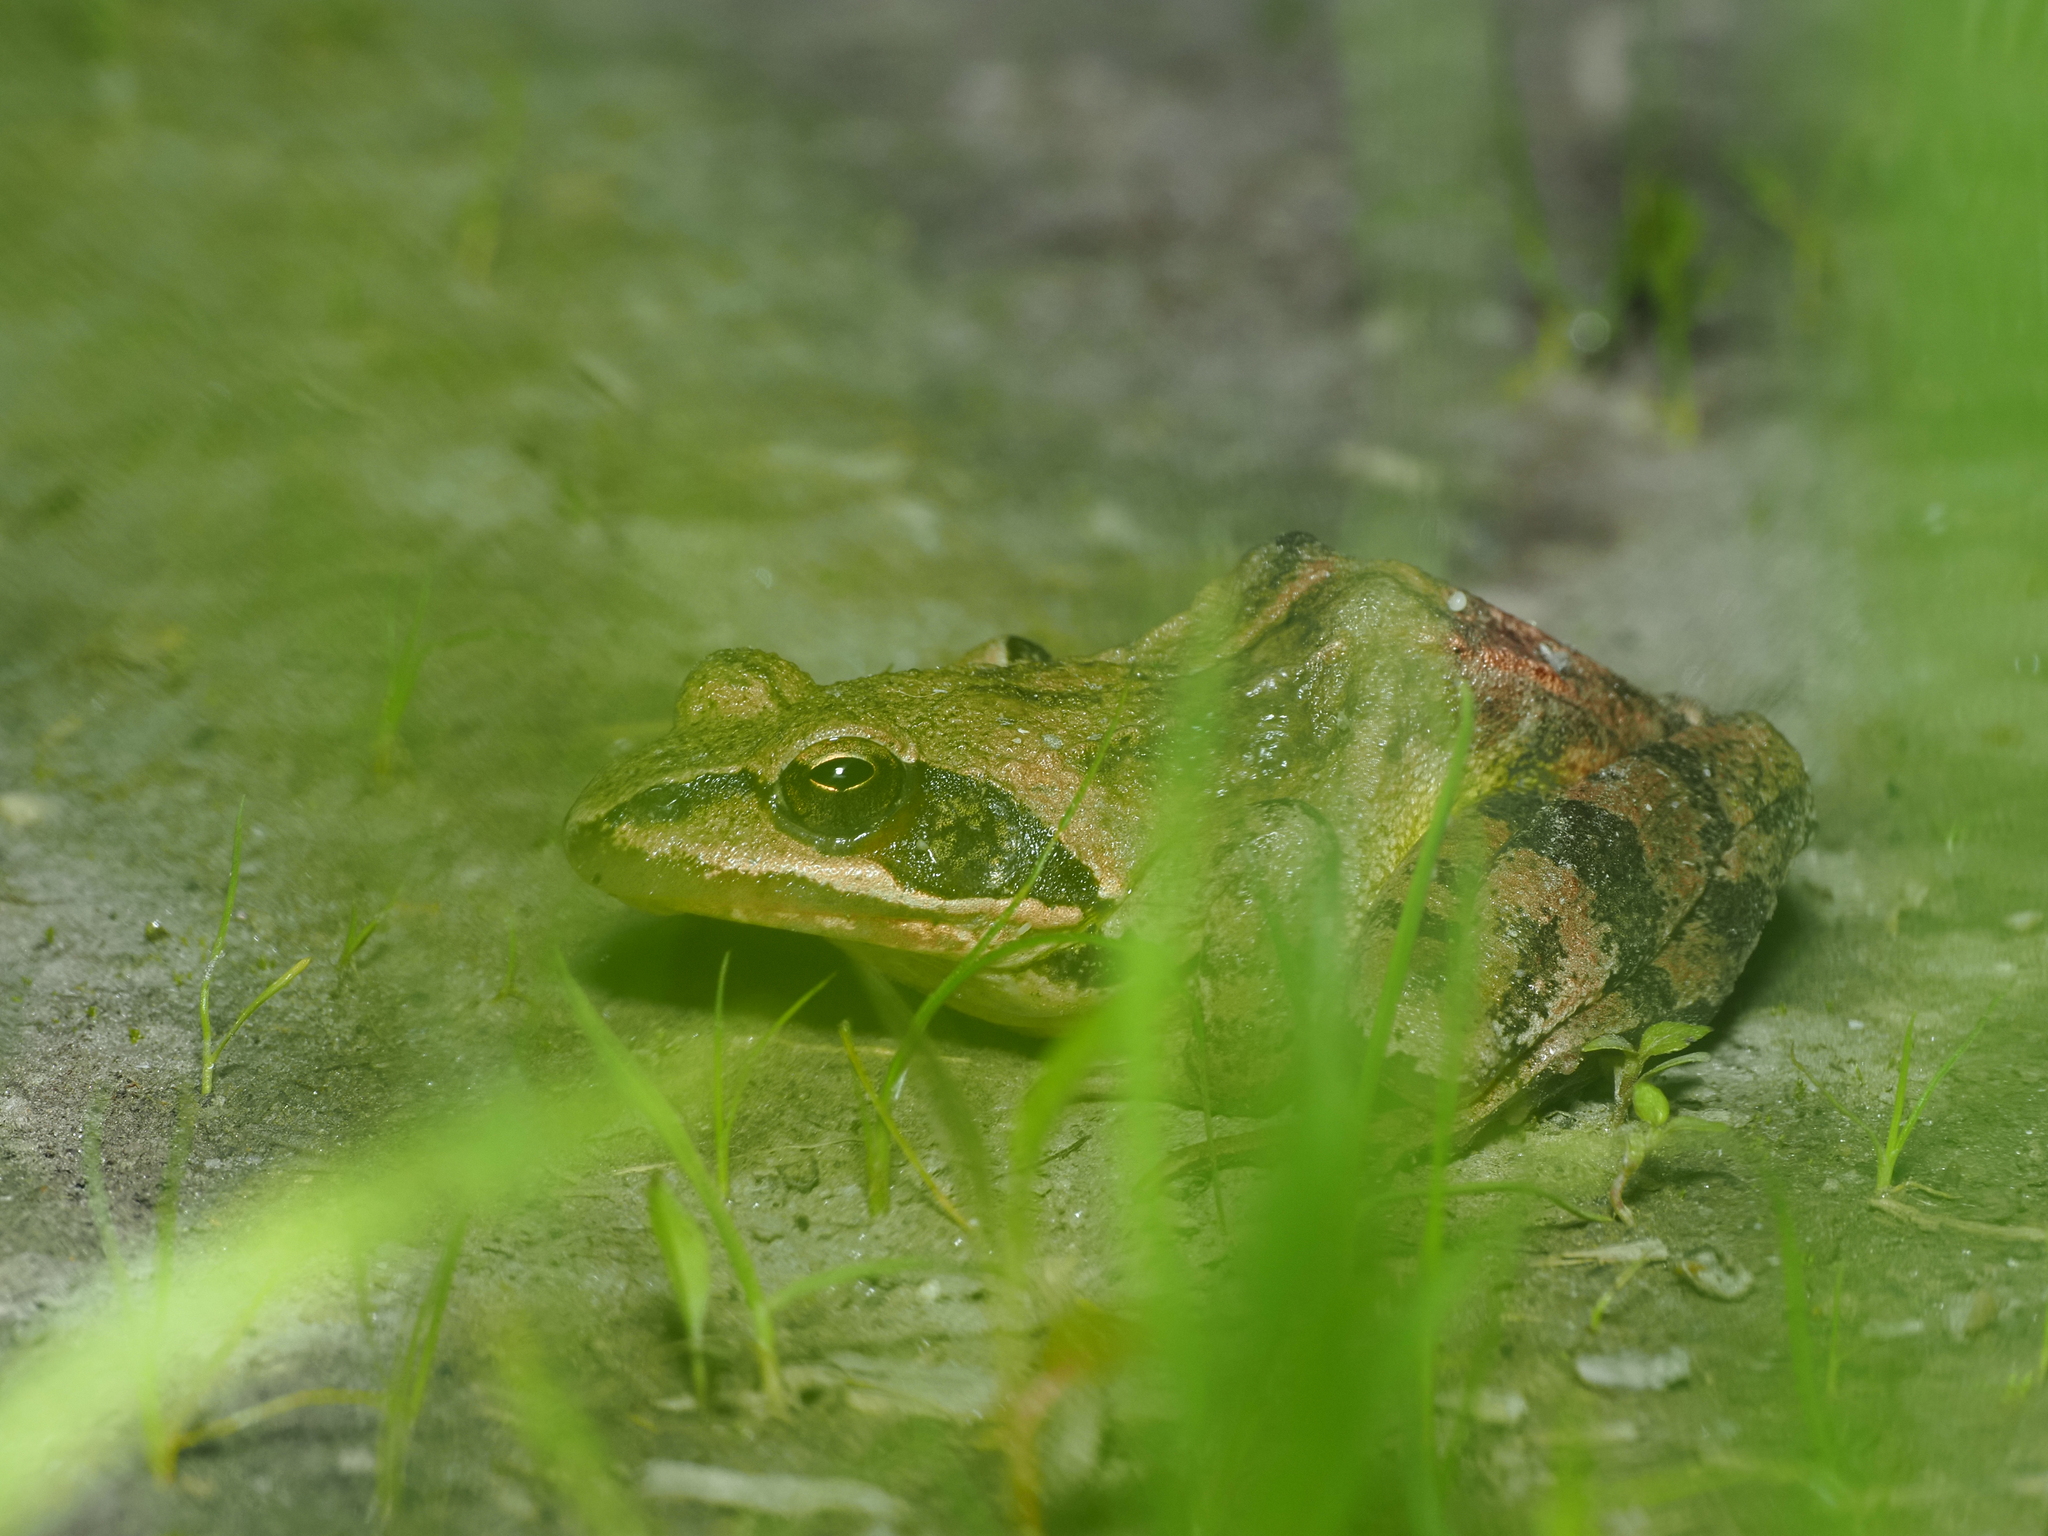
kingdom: Animalia
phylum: Chordata
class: Amphibia
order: Anura
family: Ranidae
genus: Rana
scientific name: Rana dalmatina
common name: Agile frog
